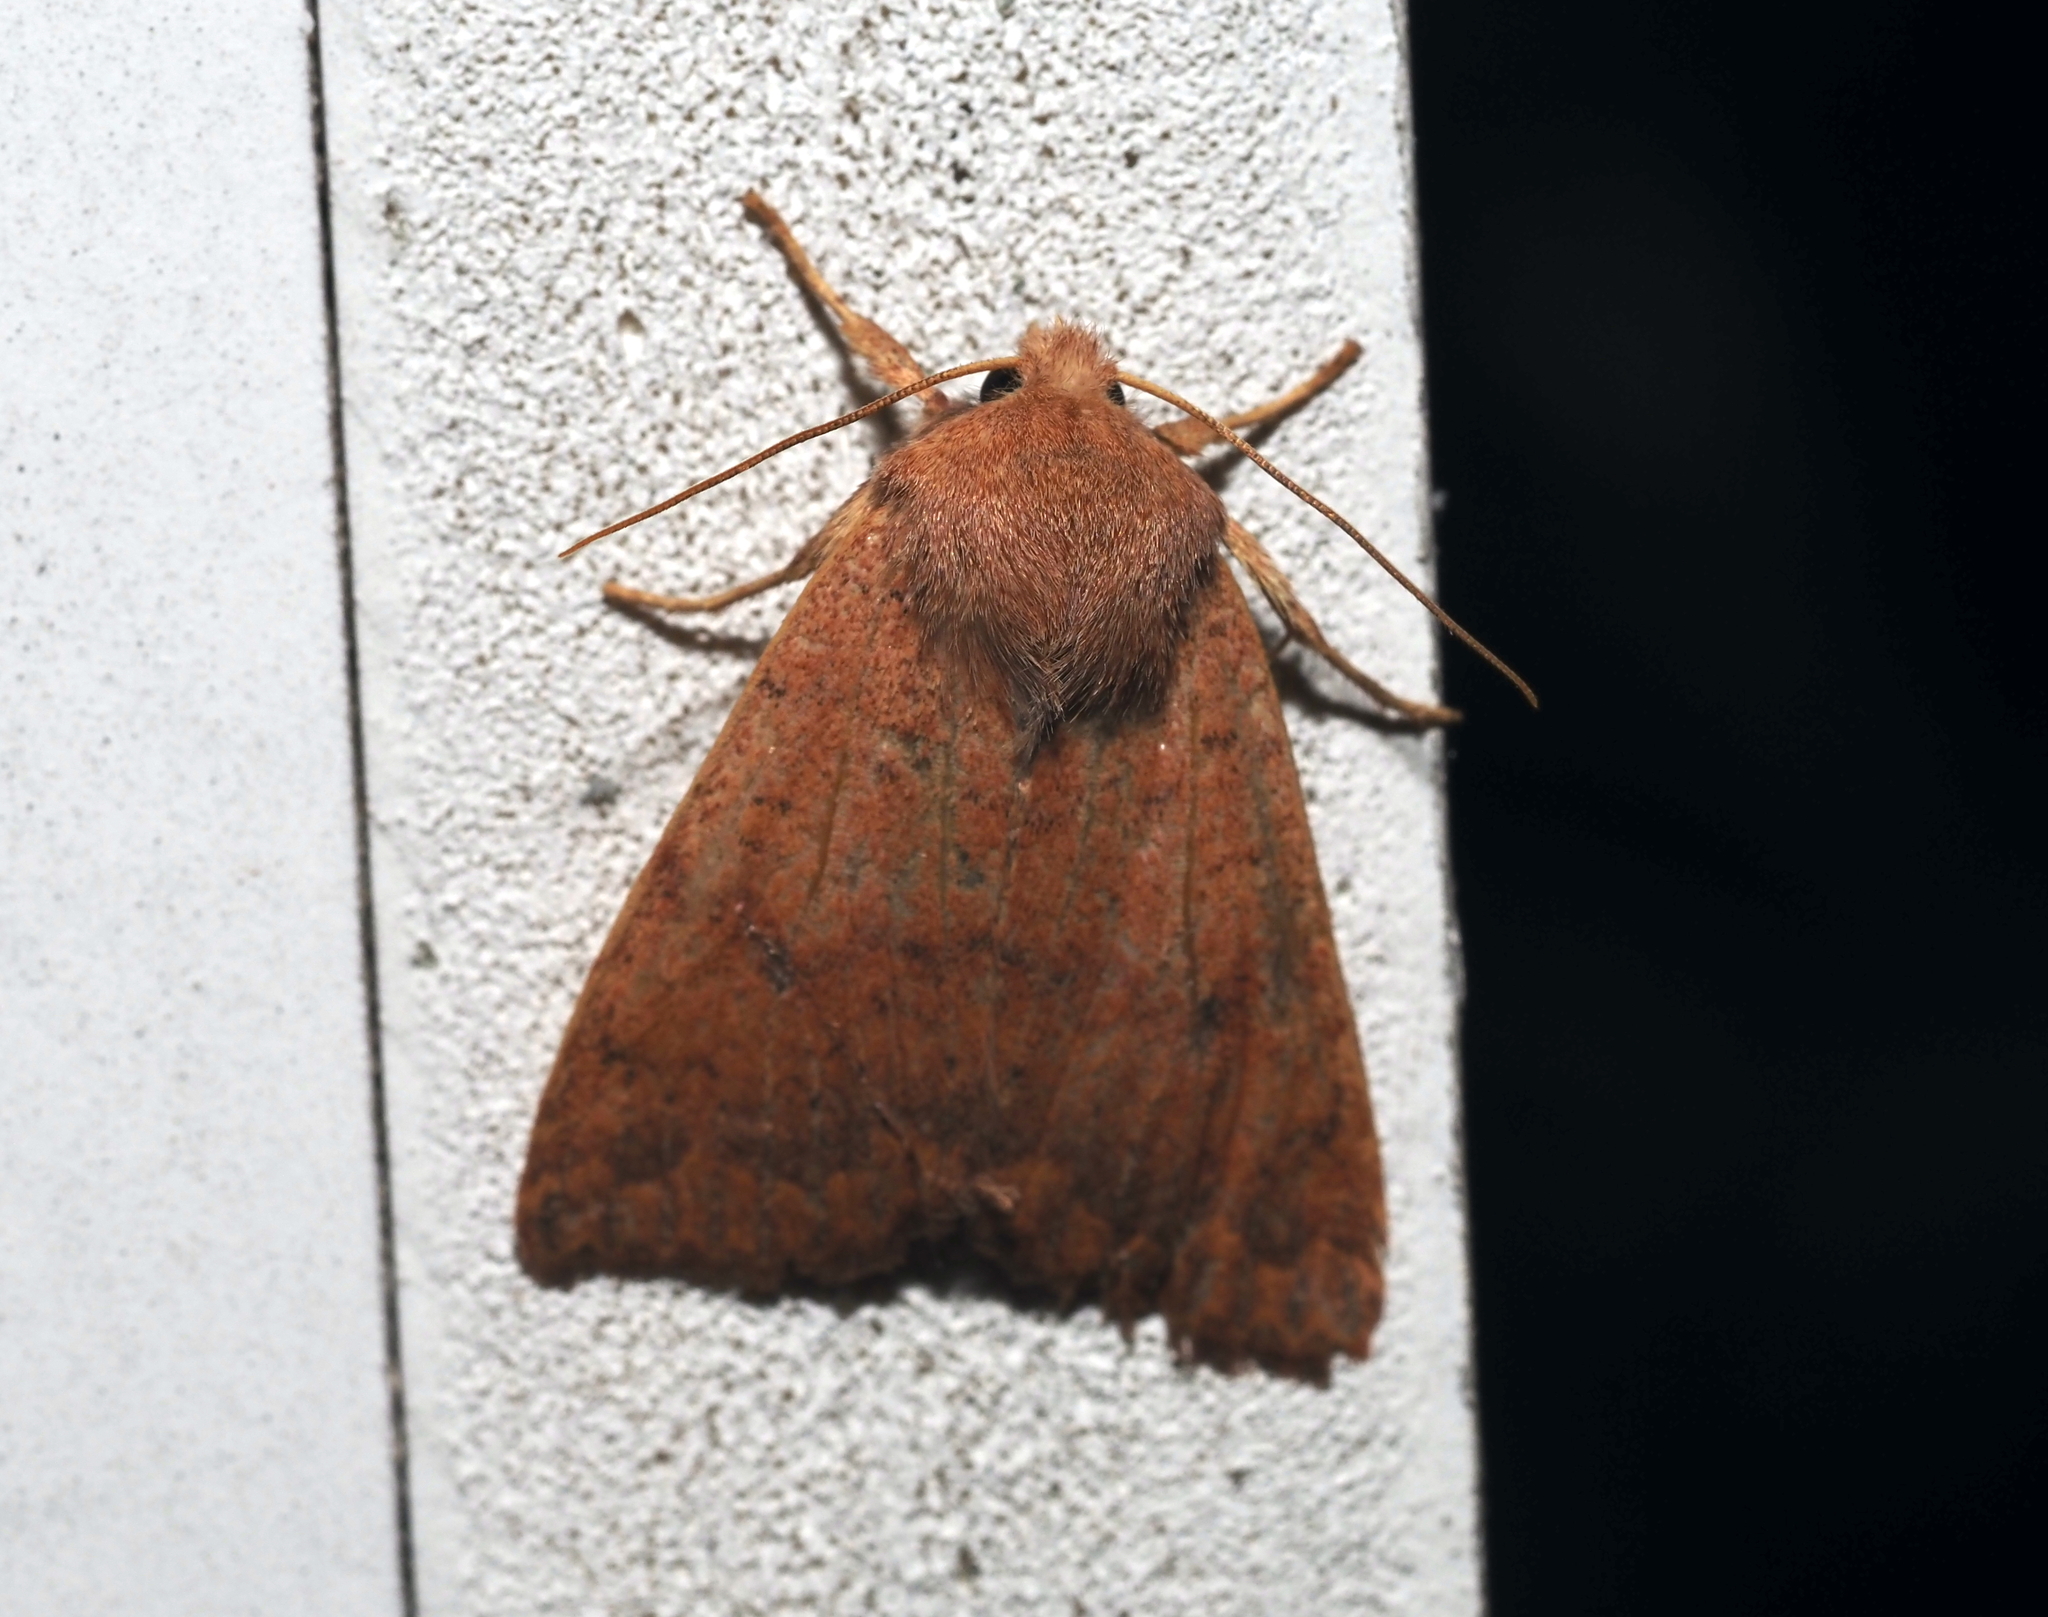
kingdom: Animalia
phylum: Arthropoda
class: Insecta
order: Lepidoptera
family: Noctuidae
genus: Agrochola
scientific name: Agrochola bicolorago
